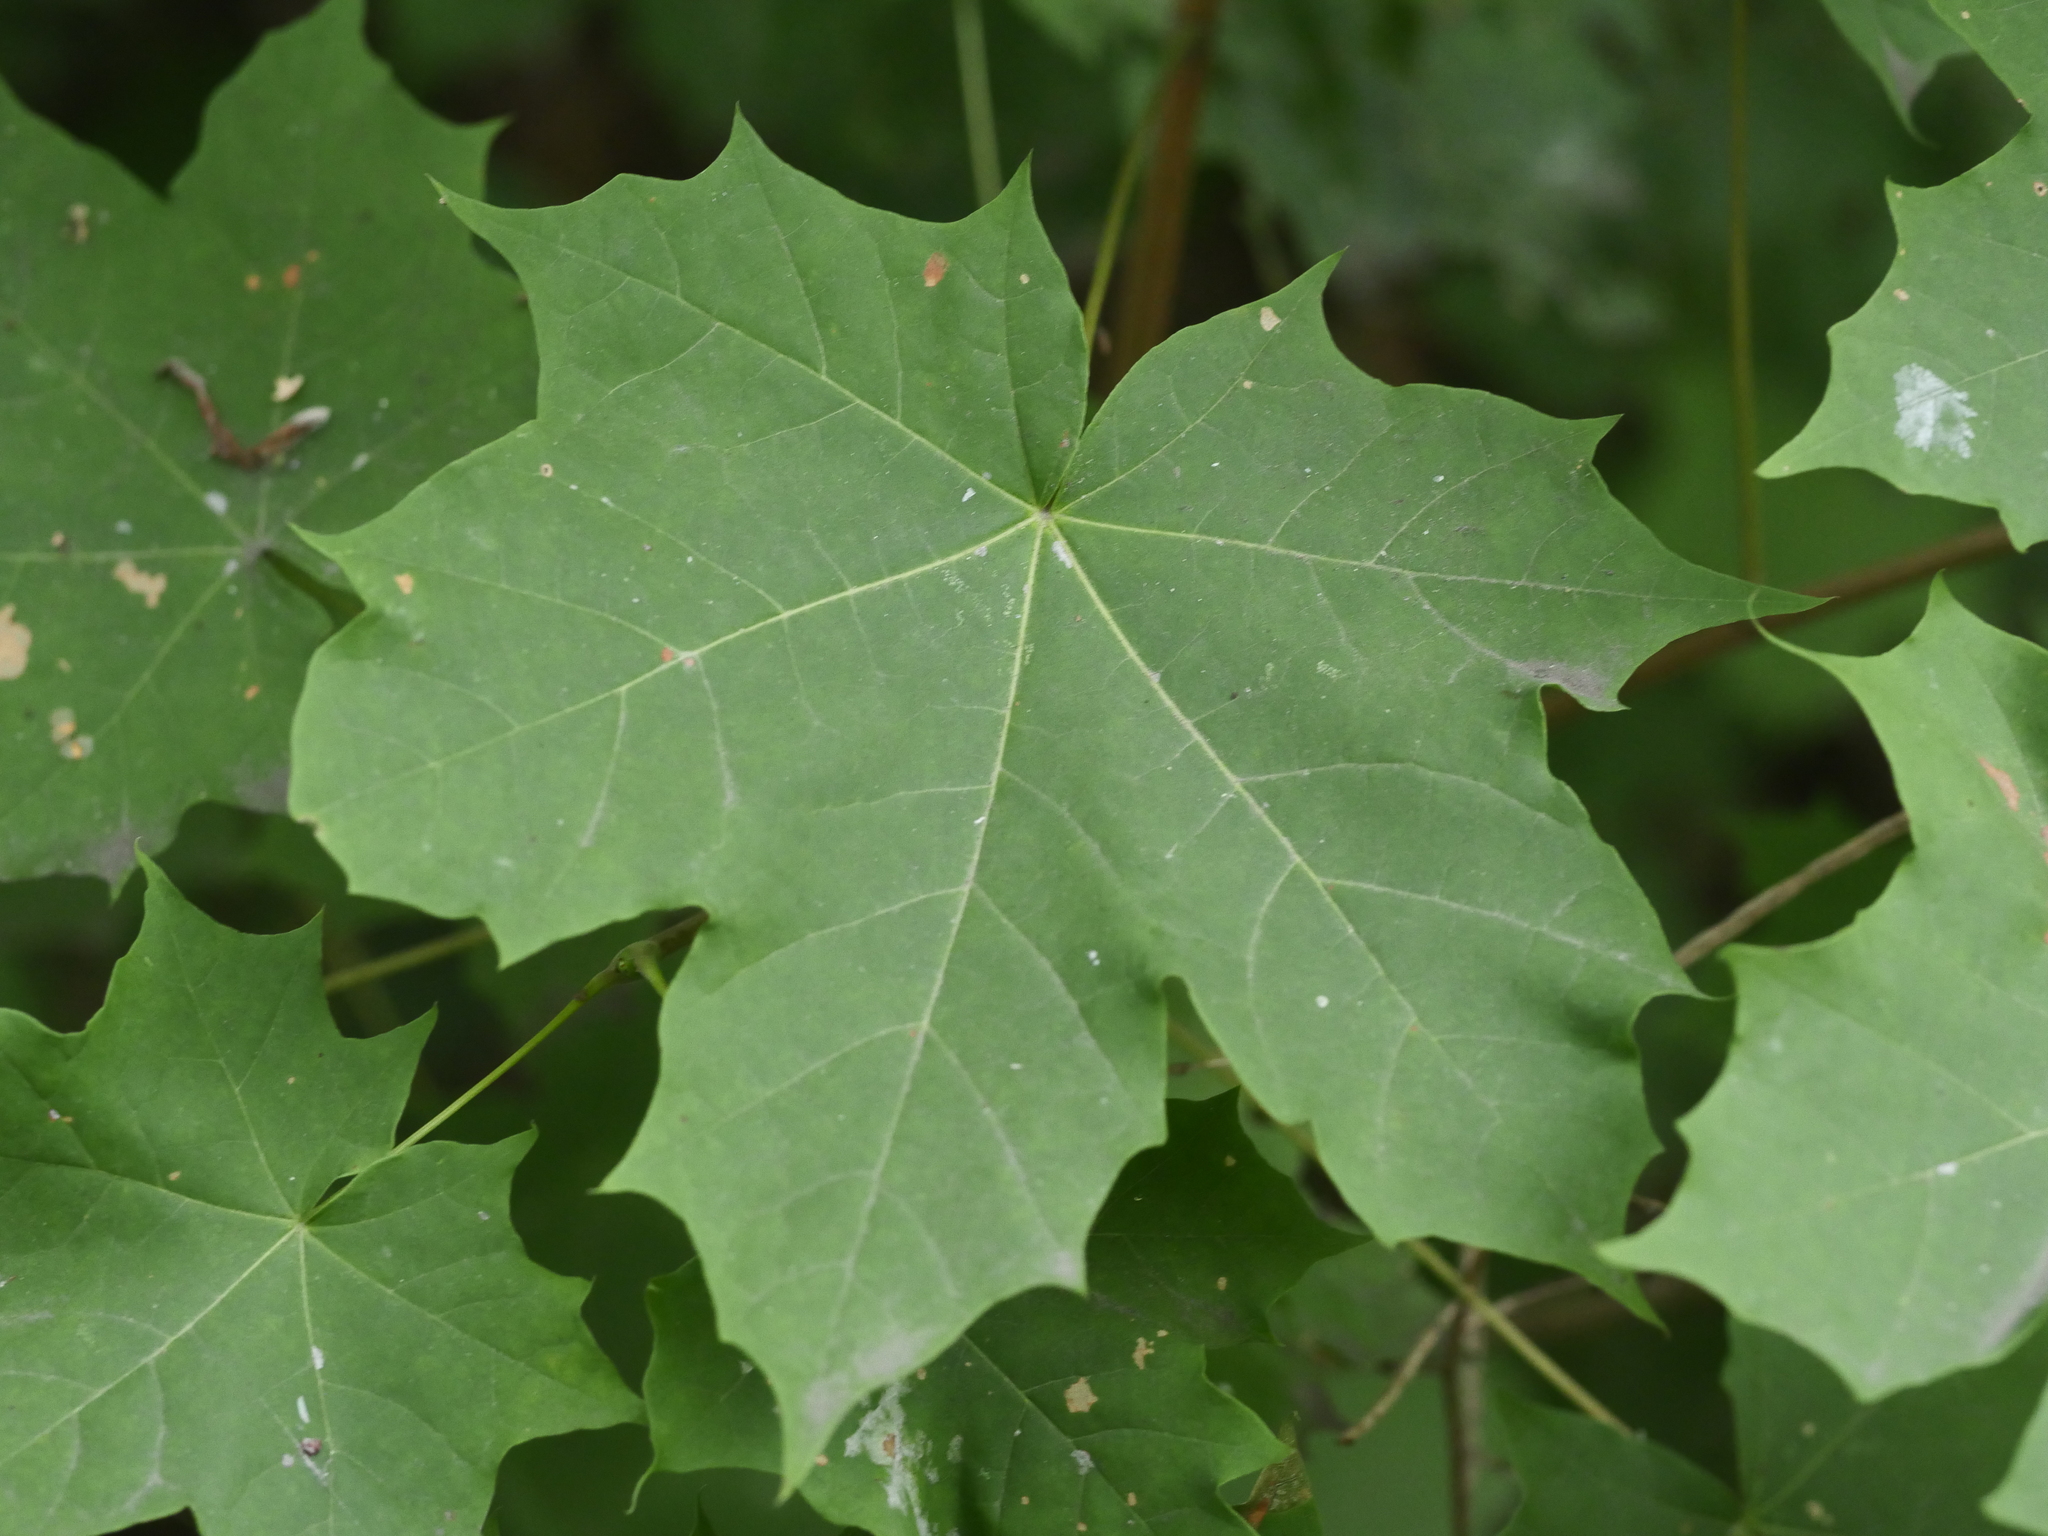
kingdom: Plantae
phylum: Tracheophyta
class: Magnoliopsida
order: Sapindales
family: Sapindaceae
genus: Acer
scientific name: Acer platanoides
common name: Norway maple
